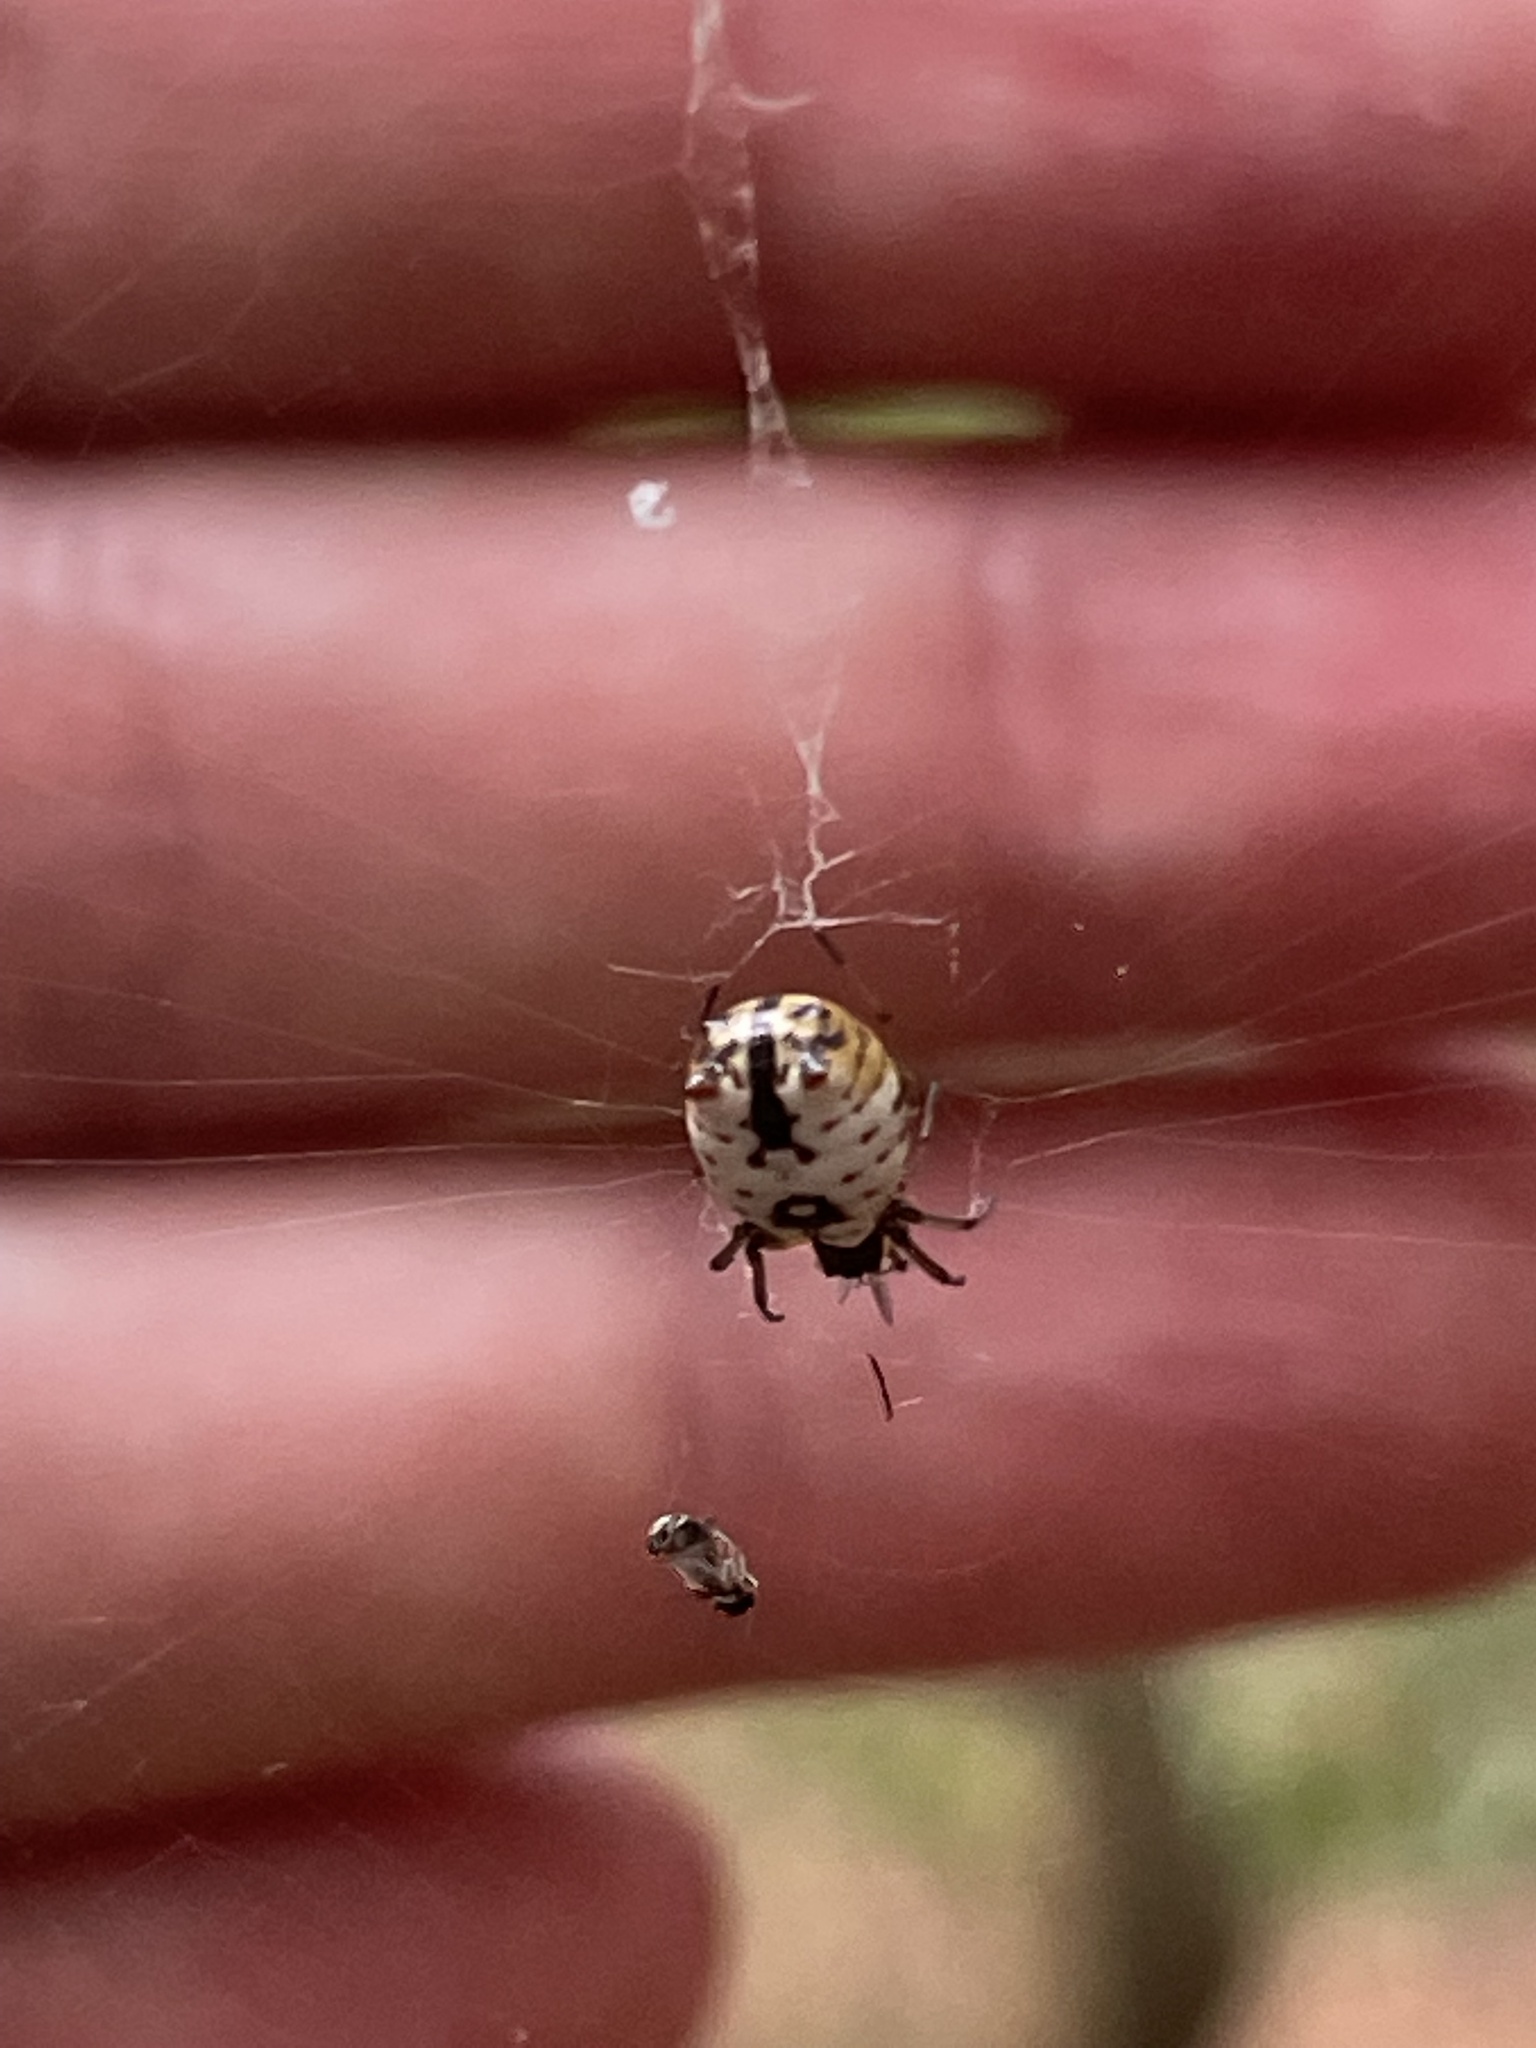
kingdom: Animalia
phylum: Arthropoda
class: Arachnida
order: Araneae
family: Araneidae
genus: Micrathena
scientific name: Micrathena mitrata
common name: Orb weavers
